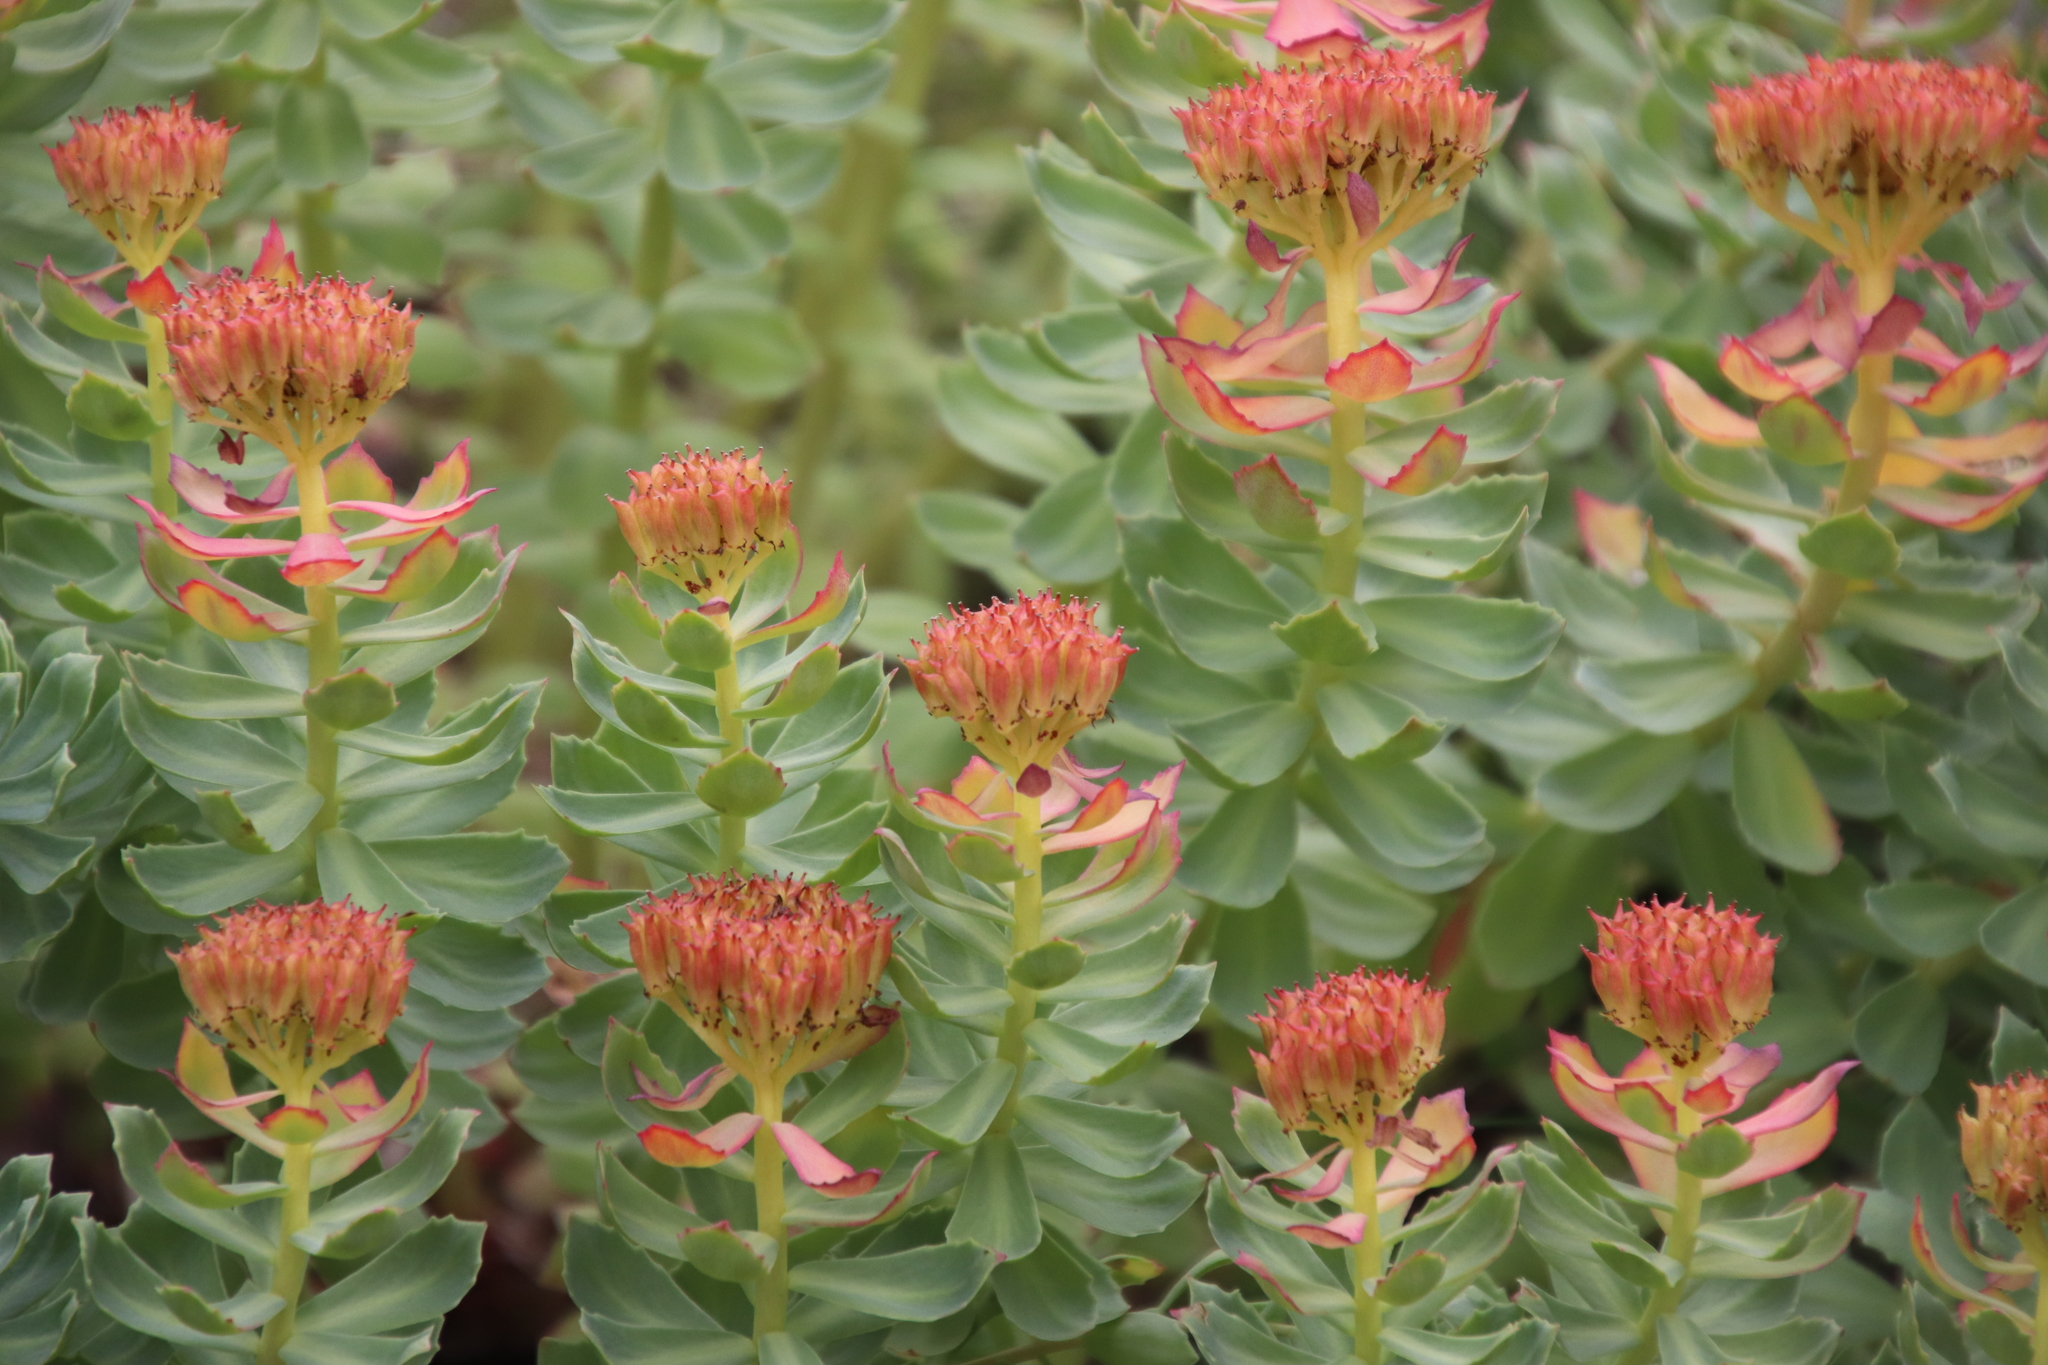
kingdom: Plantae
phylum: Tracheophyta
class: Magnoliopsida
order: Saxifragales
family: Crassulaceae
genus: Rhodiola
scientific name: Rhodiola rosea
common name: Roseroot
